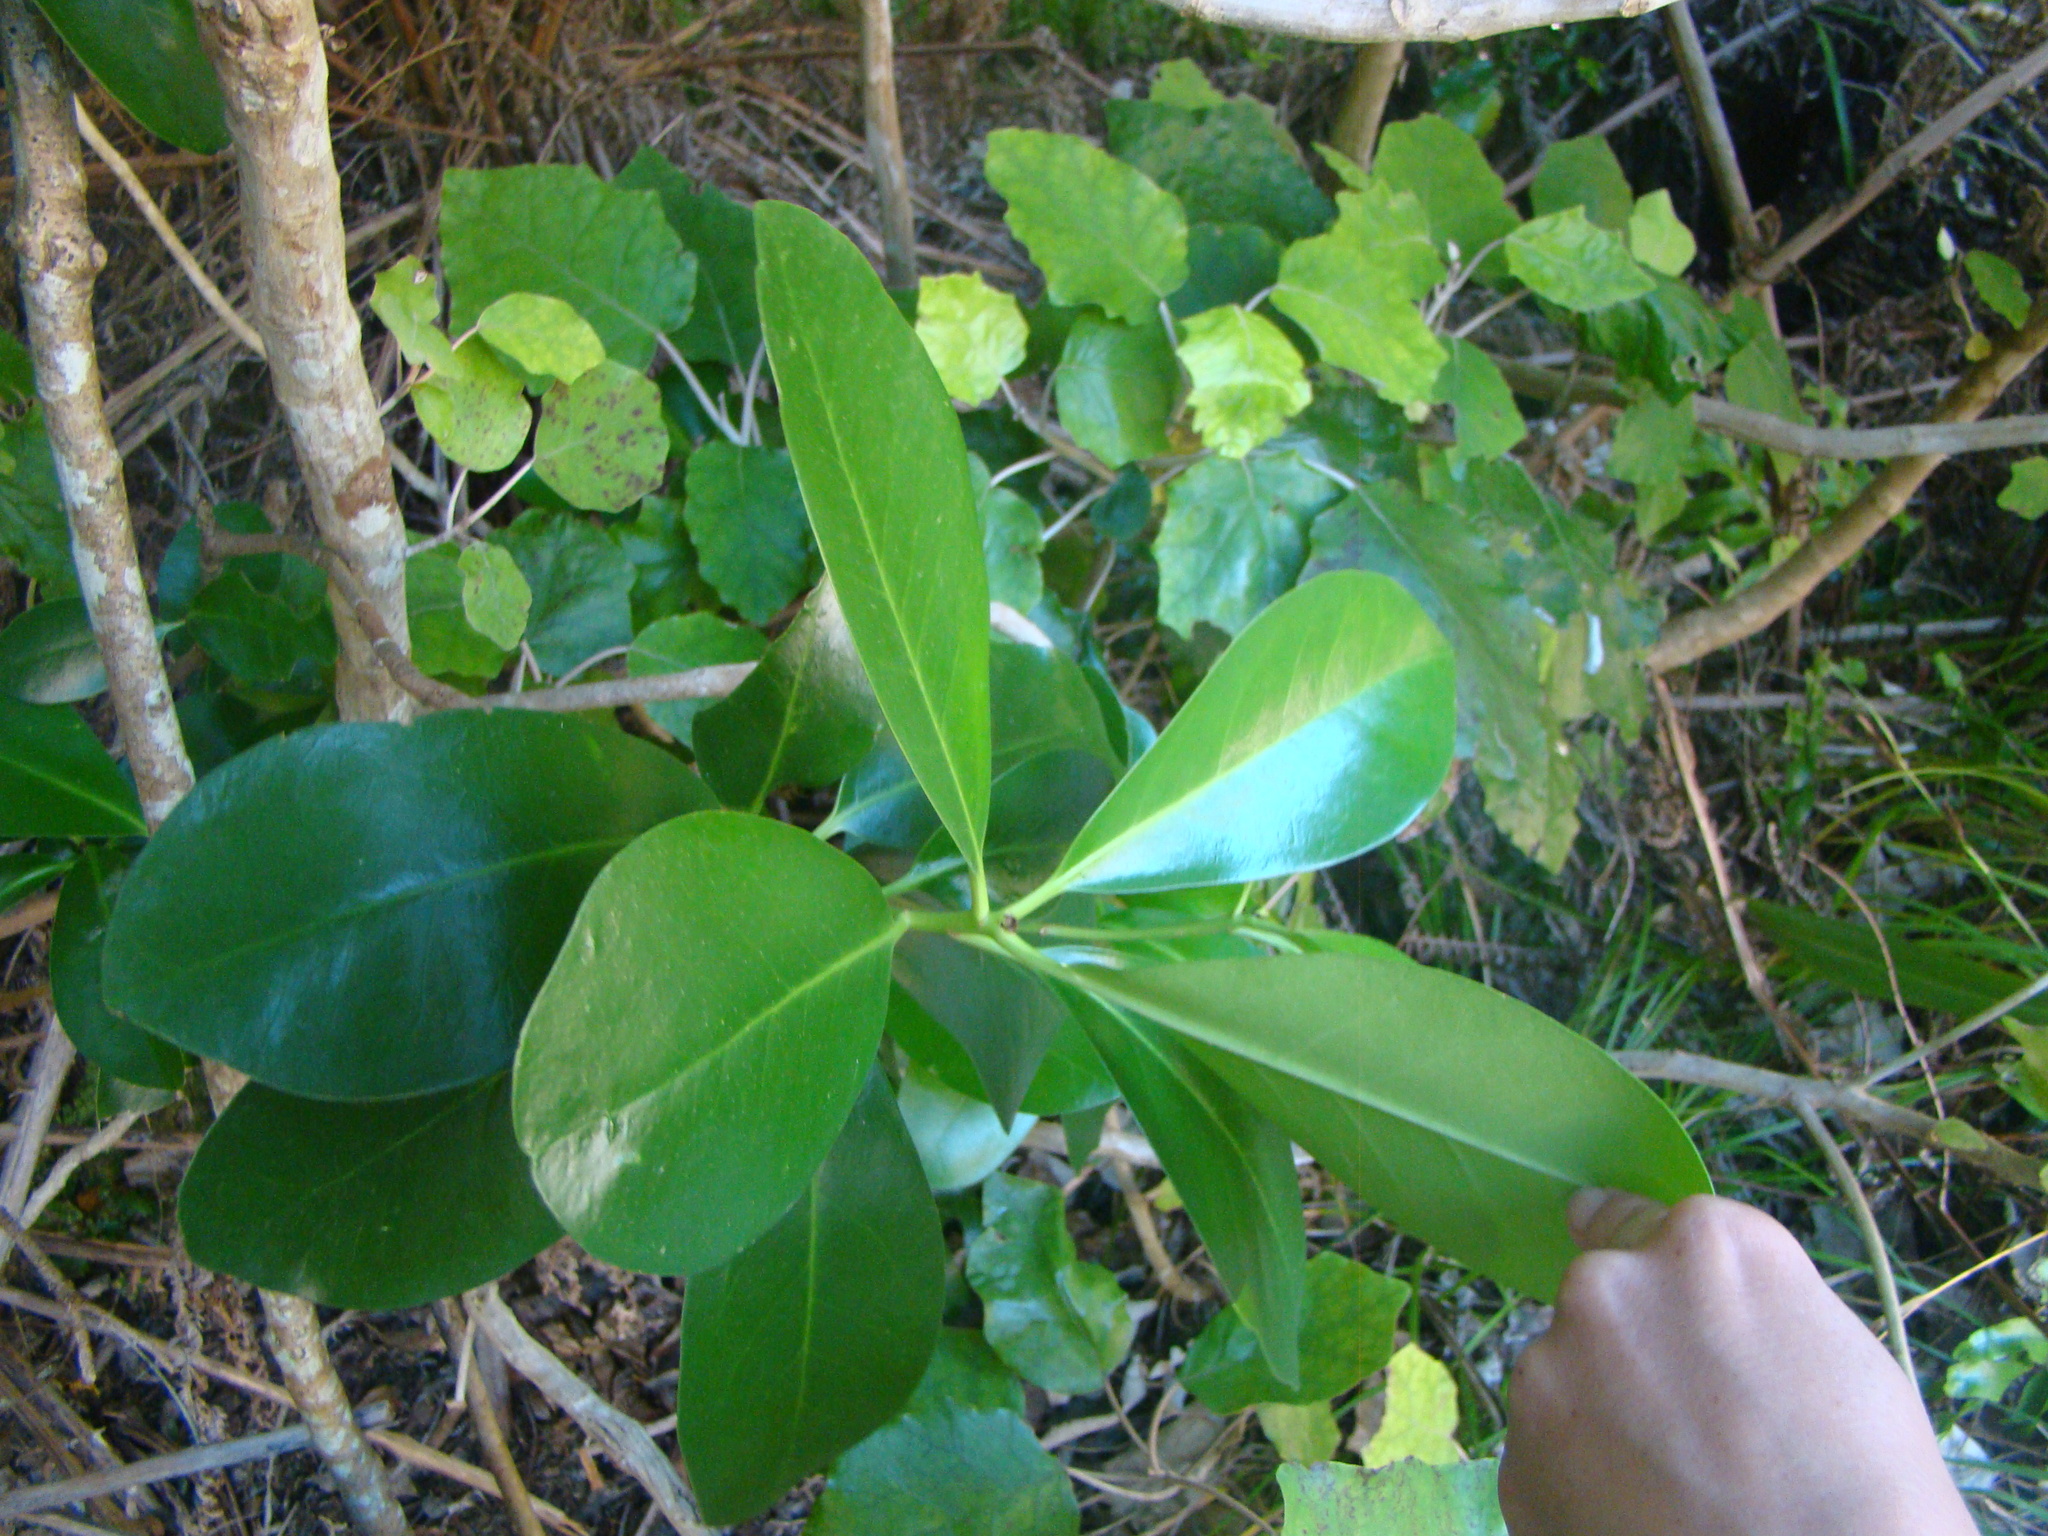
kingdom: Plantae
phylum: Tracheophyta
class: Magnoliopsida
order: Cucurbitales
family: Corynocarpaceae
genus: Corynocarpus
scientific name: Corynocarpus laevigatus
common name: New zealand laurel
